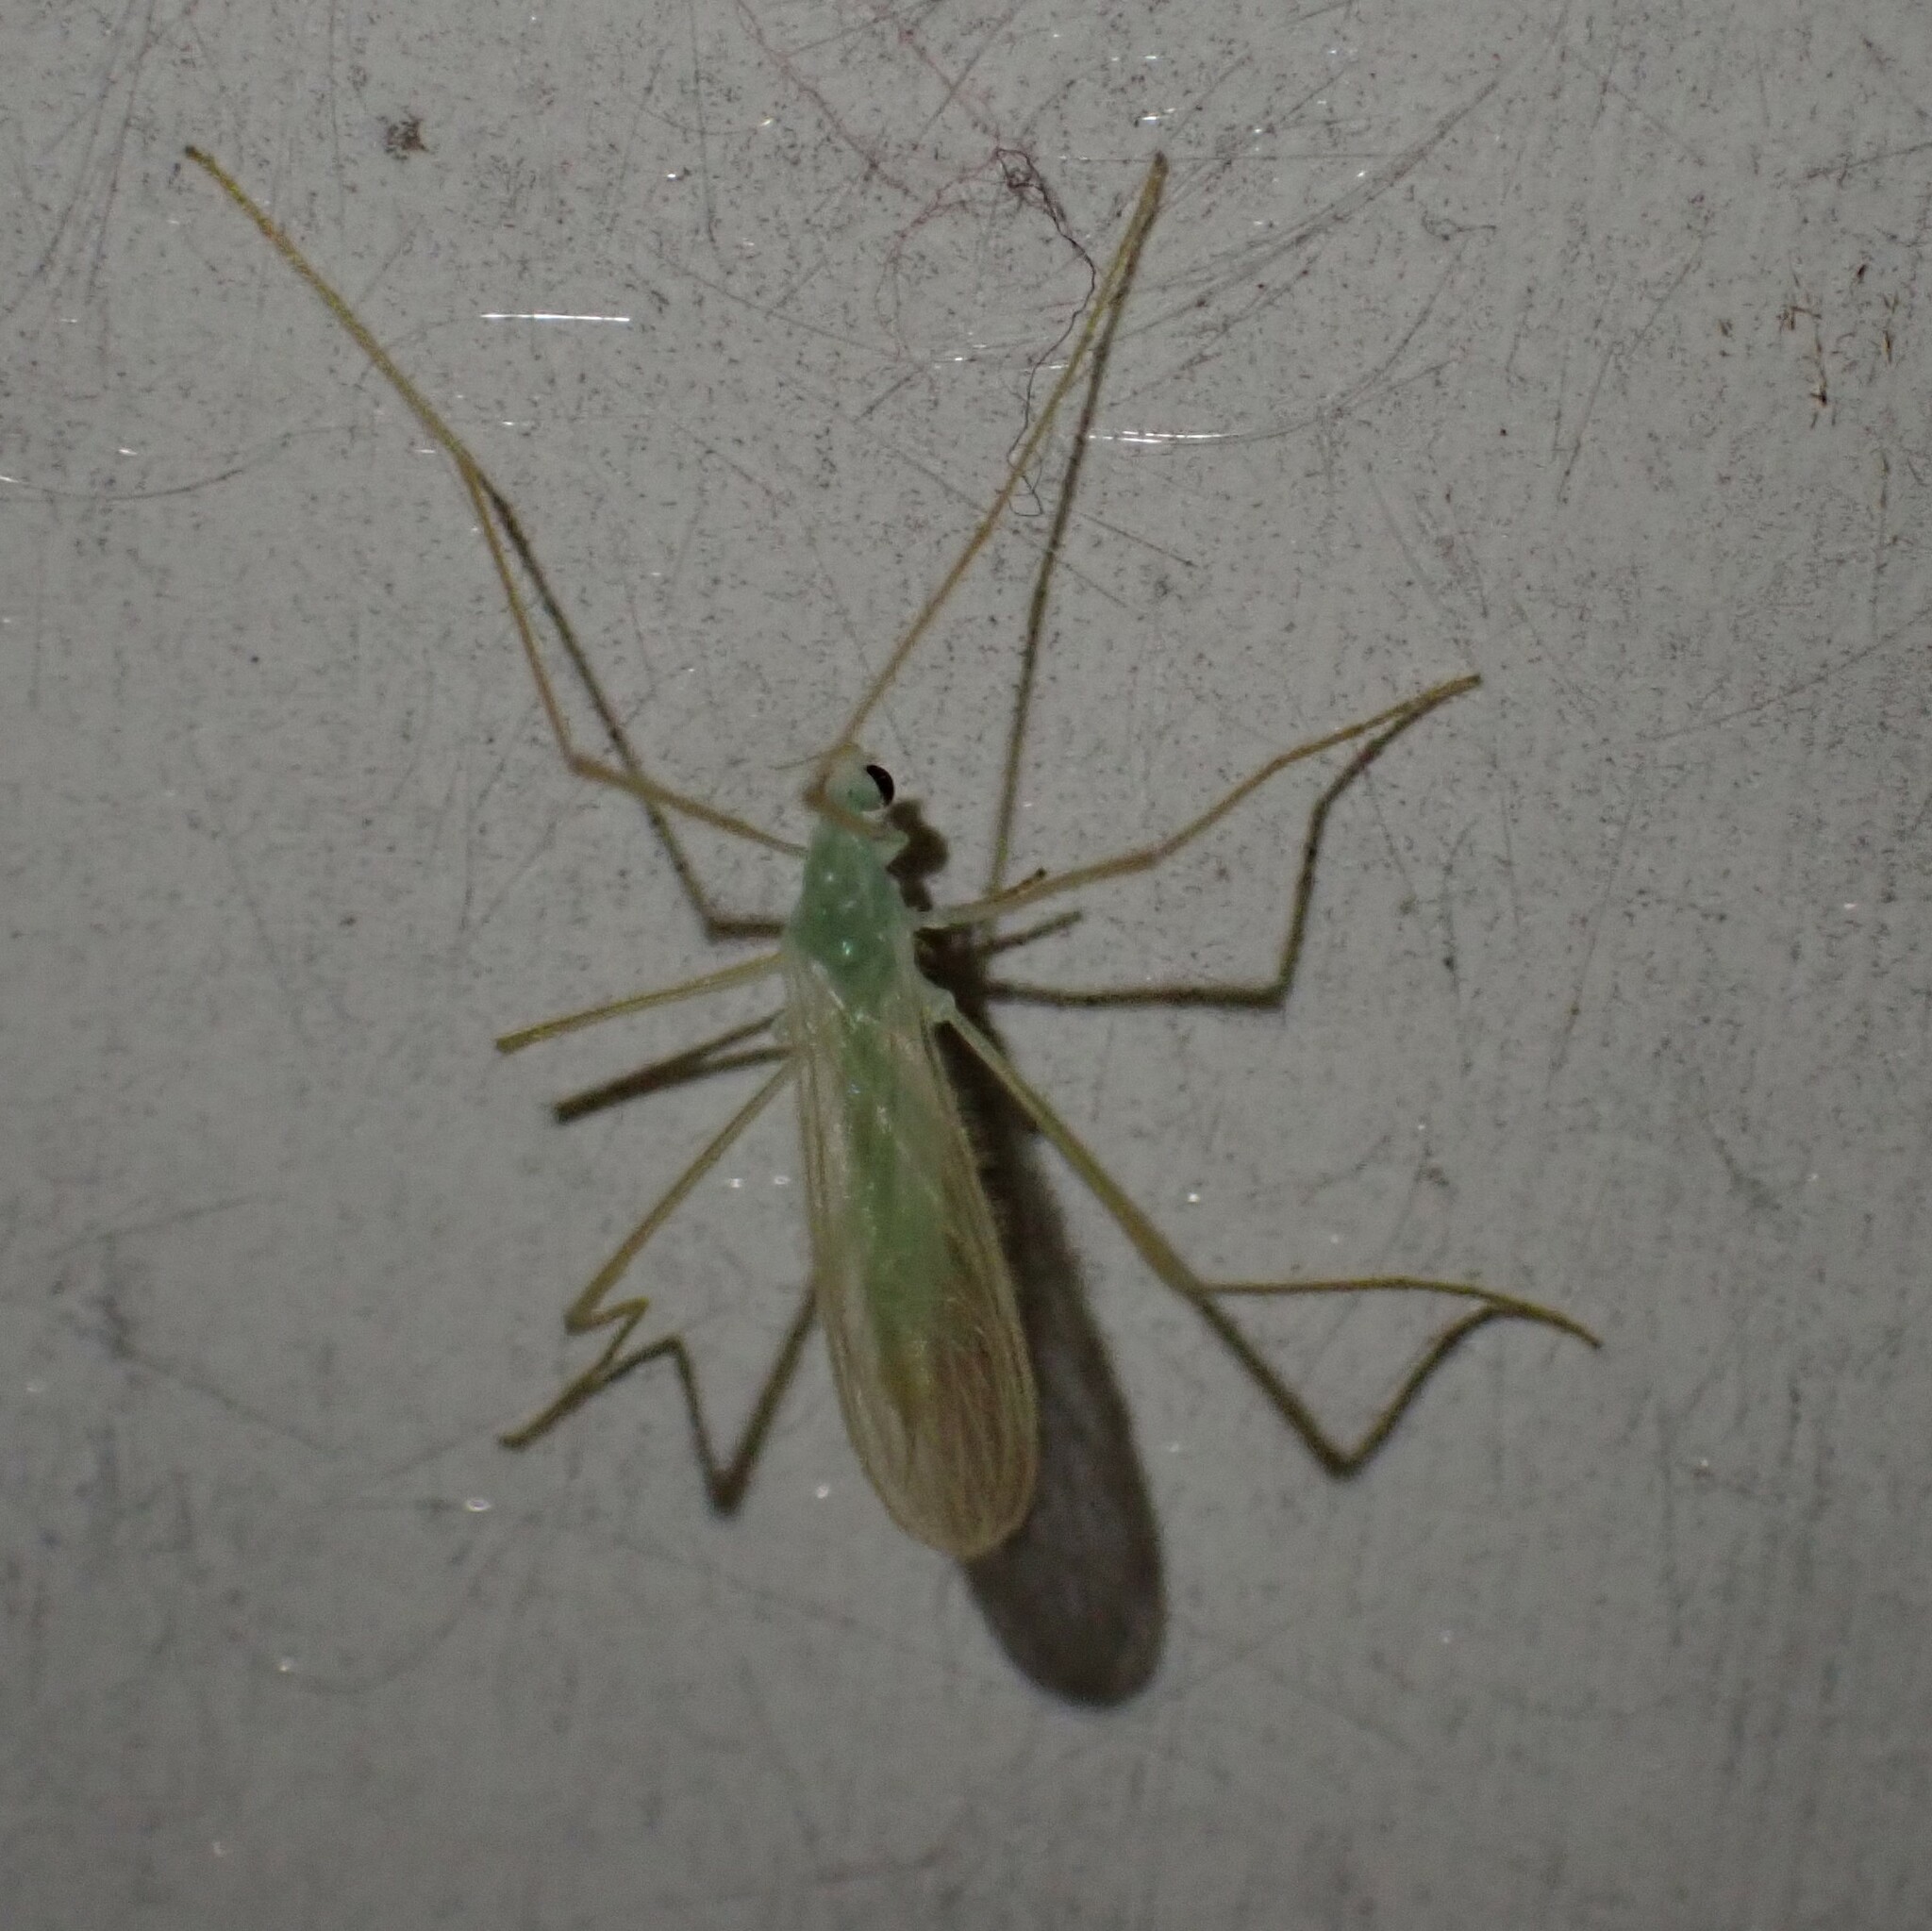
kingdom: Animalia
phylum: Arthropoda
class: Insecta
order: Diptera
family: Limoniidae
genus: Erioptera
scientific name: Erioptera
